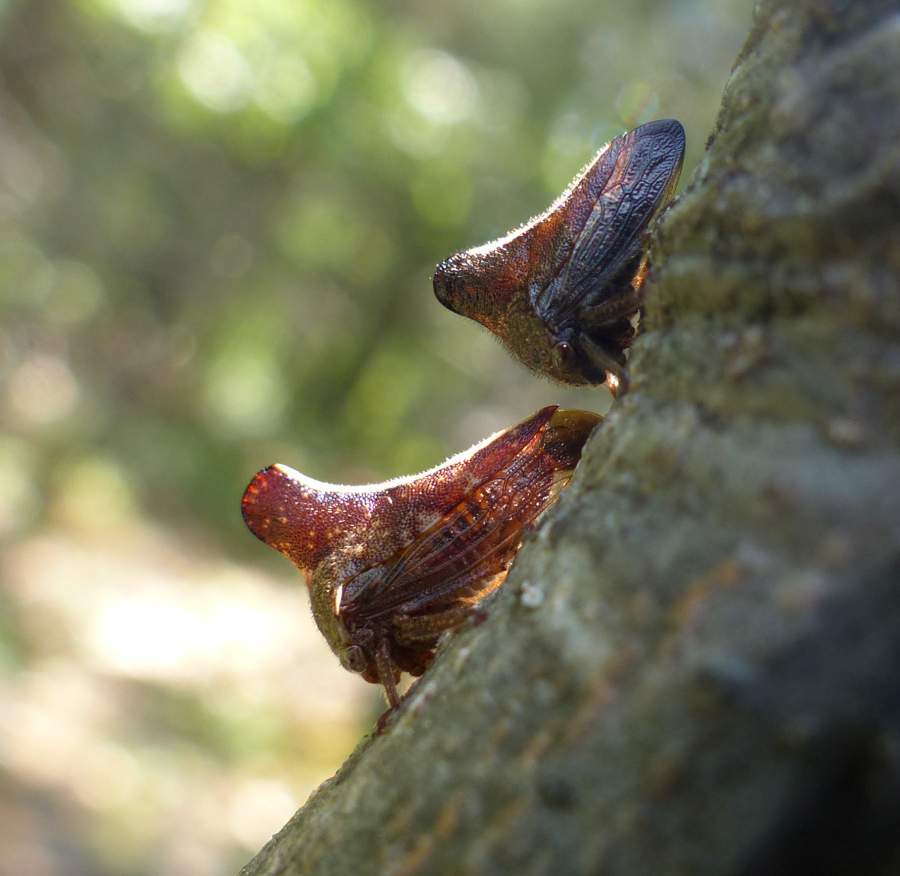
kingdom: Animalia
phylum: Arthropoda
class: Insecta
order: Hemiptera
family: Membracidae
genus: Glossonotus
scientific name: Glossonotus univittatus
